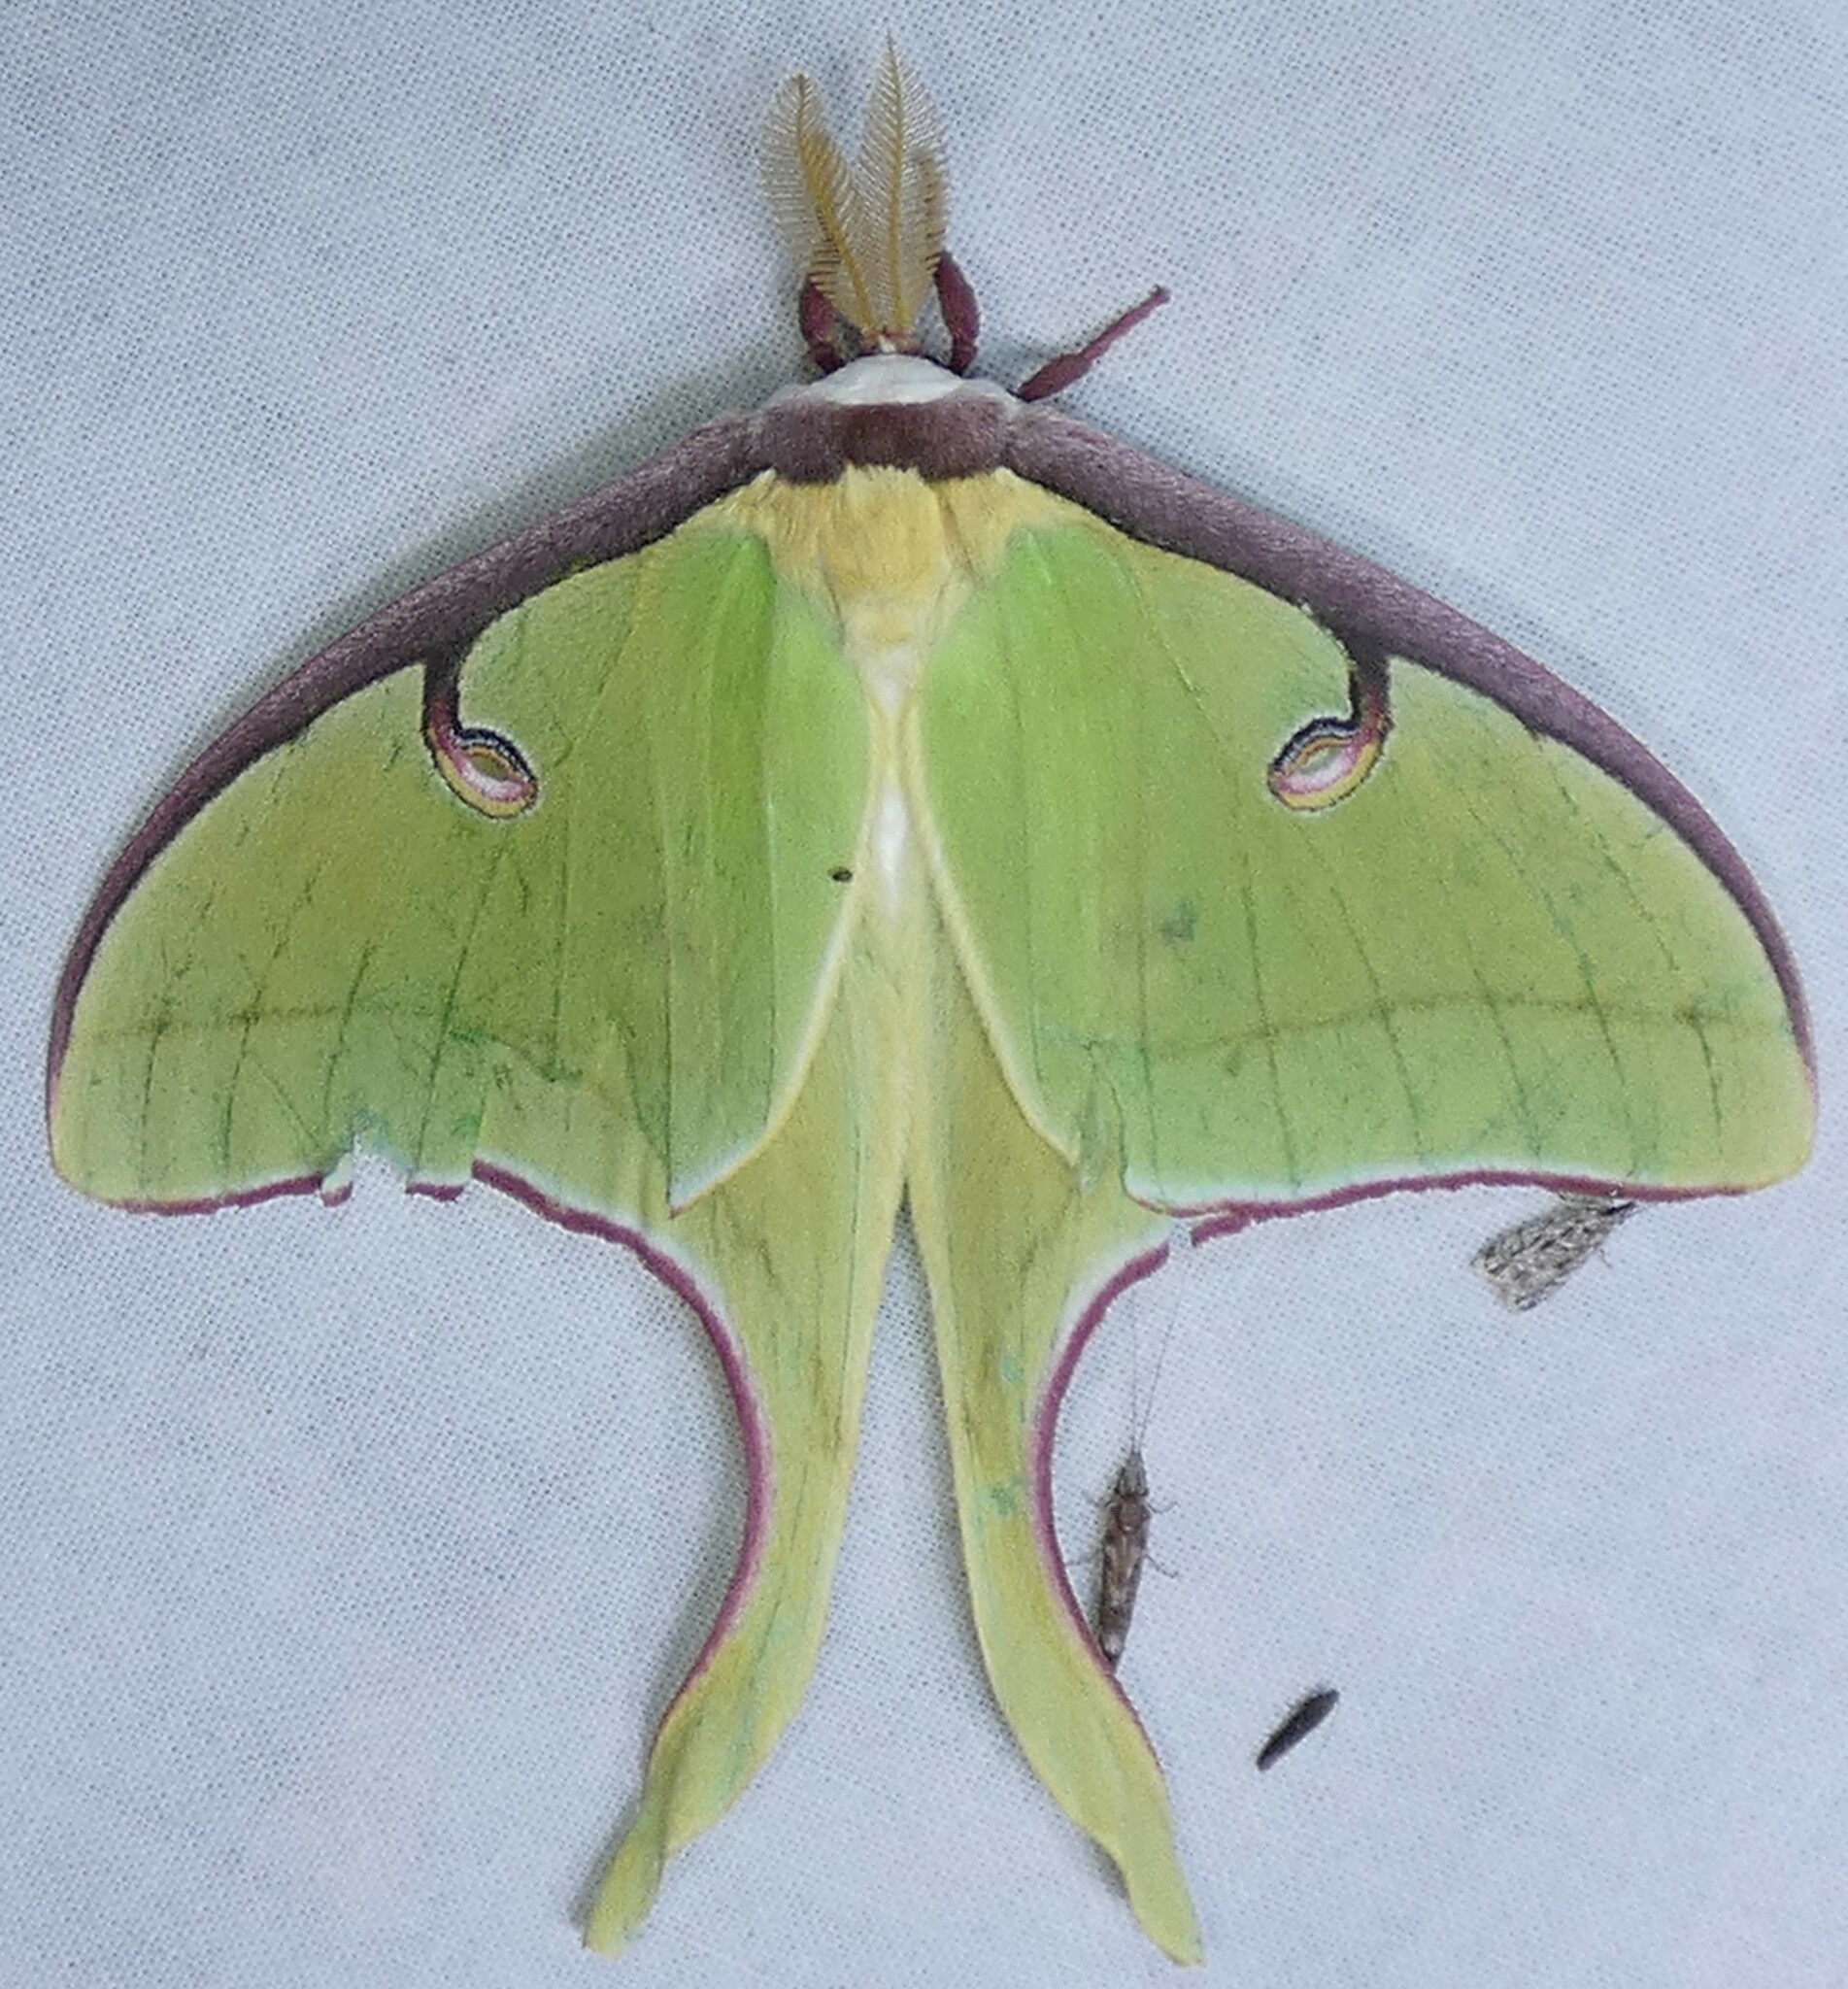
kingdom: Animalia
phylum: Arthropoda
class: Insecta
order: Lepidoptera
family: Saturniidae
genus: Actias
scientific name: Actias luna
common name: Luna moth
